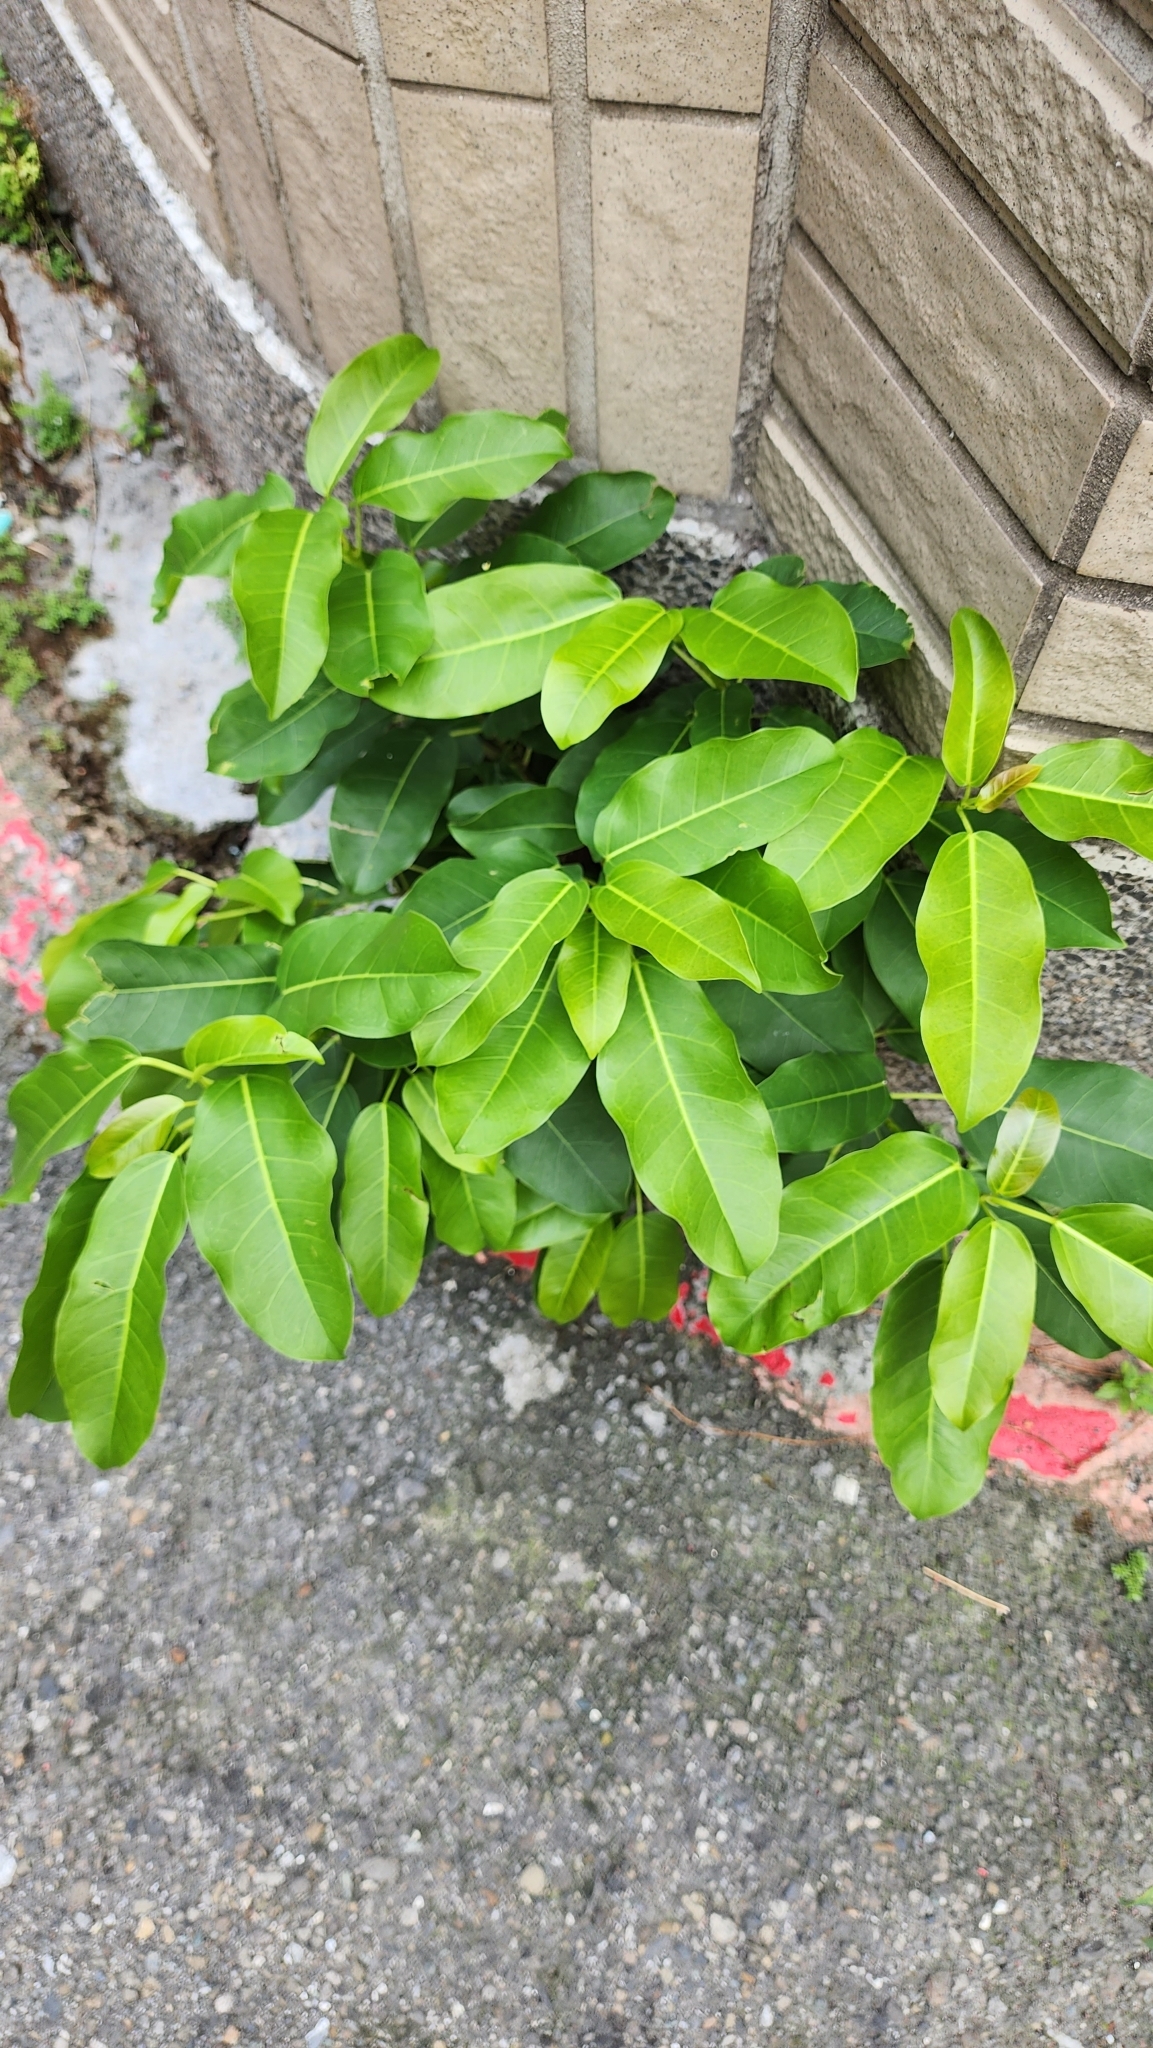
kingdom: Plantae
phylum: Tracheophyta
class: Magnoliopsida
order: Rosales
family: Moraceae
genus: Ficus
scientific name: Ficus subpisocarpa
